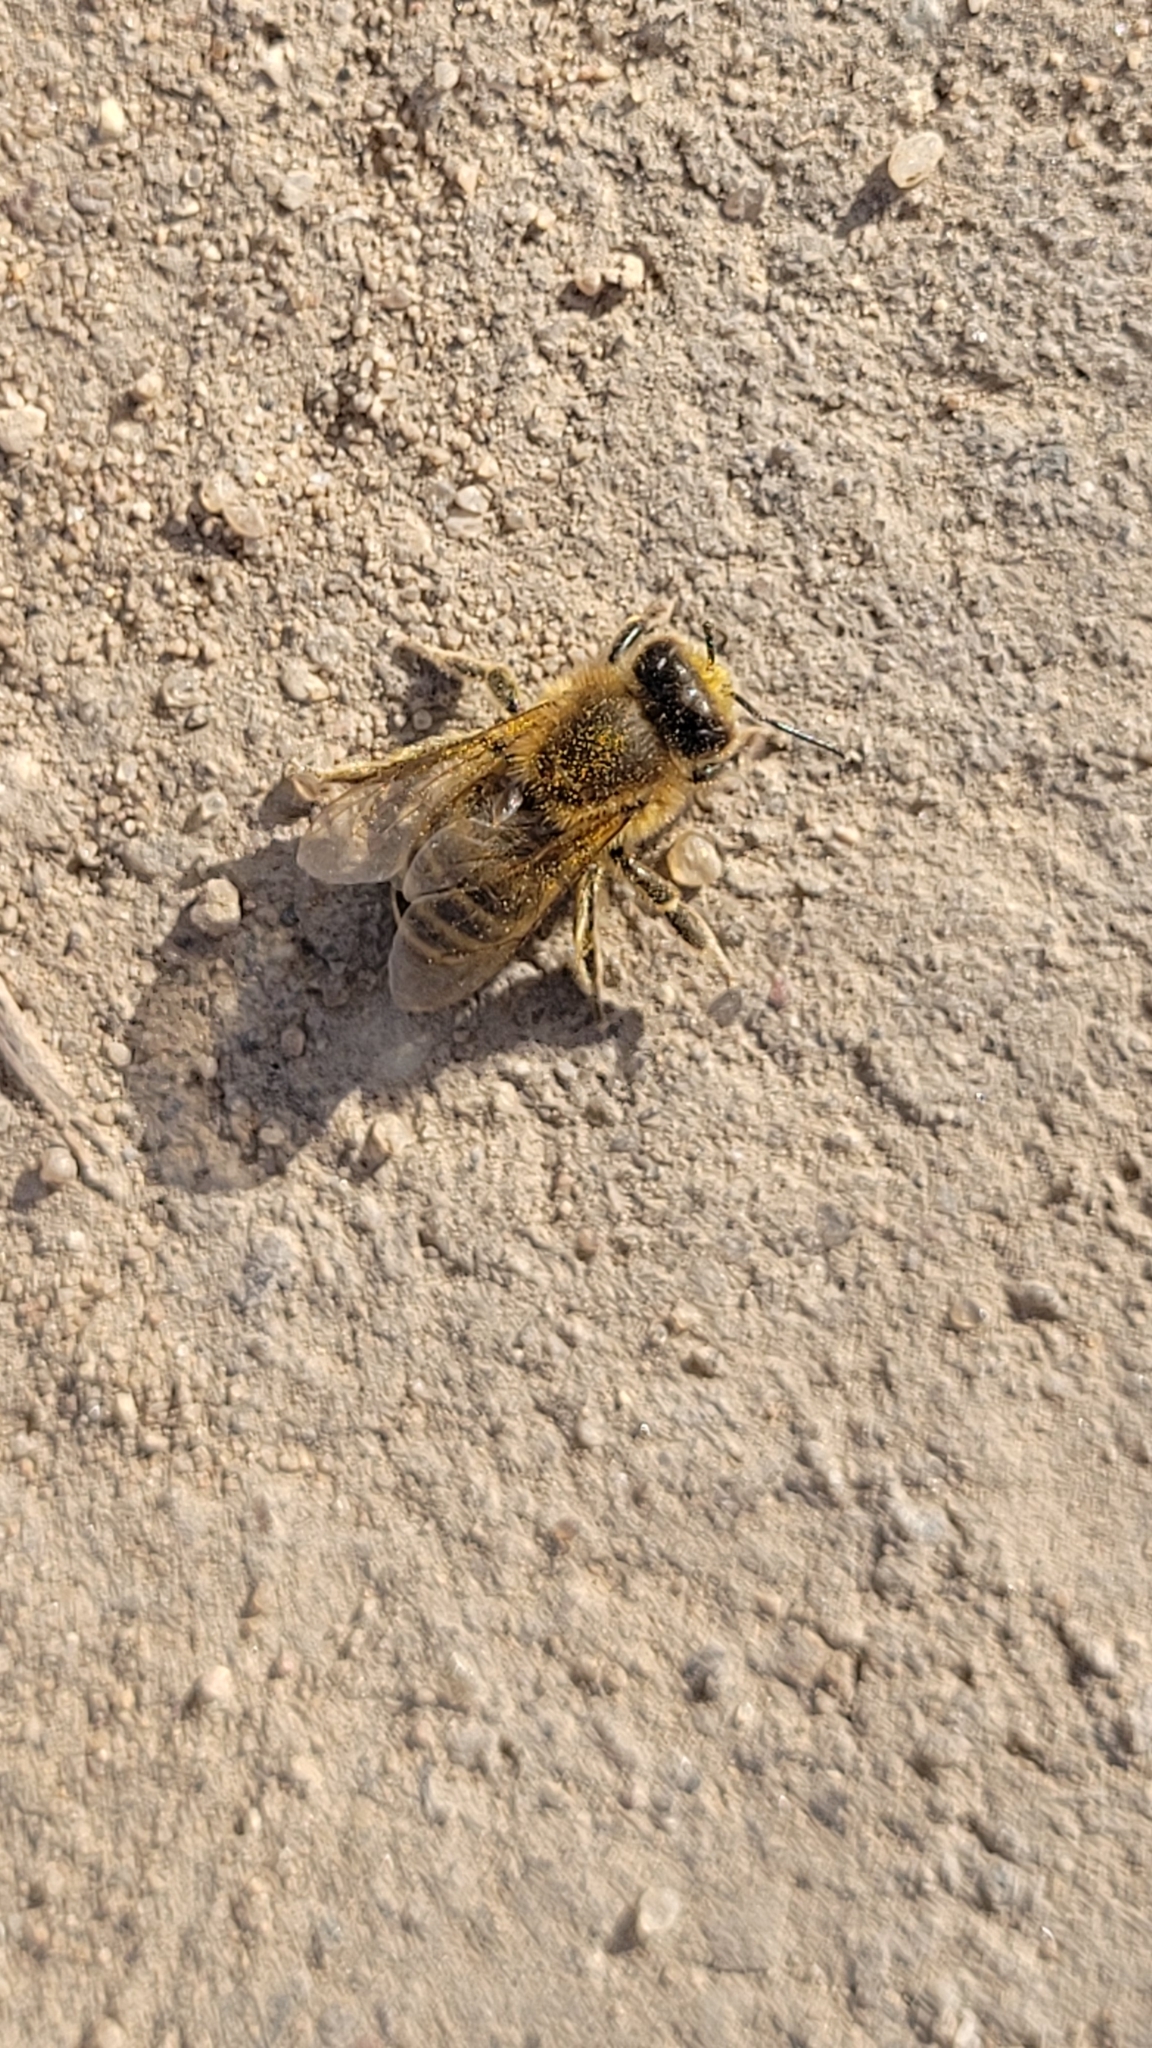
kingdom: Animalia
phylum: Arthropoda
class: Insecta
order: Hymenoptera
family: Apidae
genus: Apis
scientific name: Apis mellifera
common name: Honey bee
